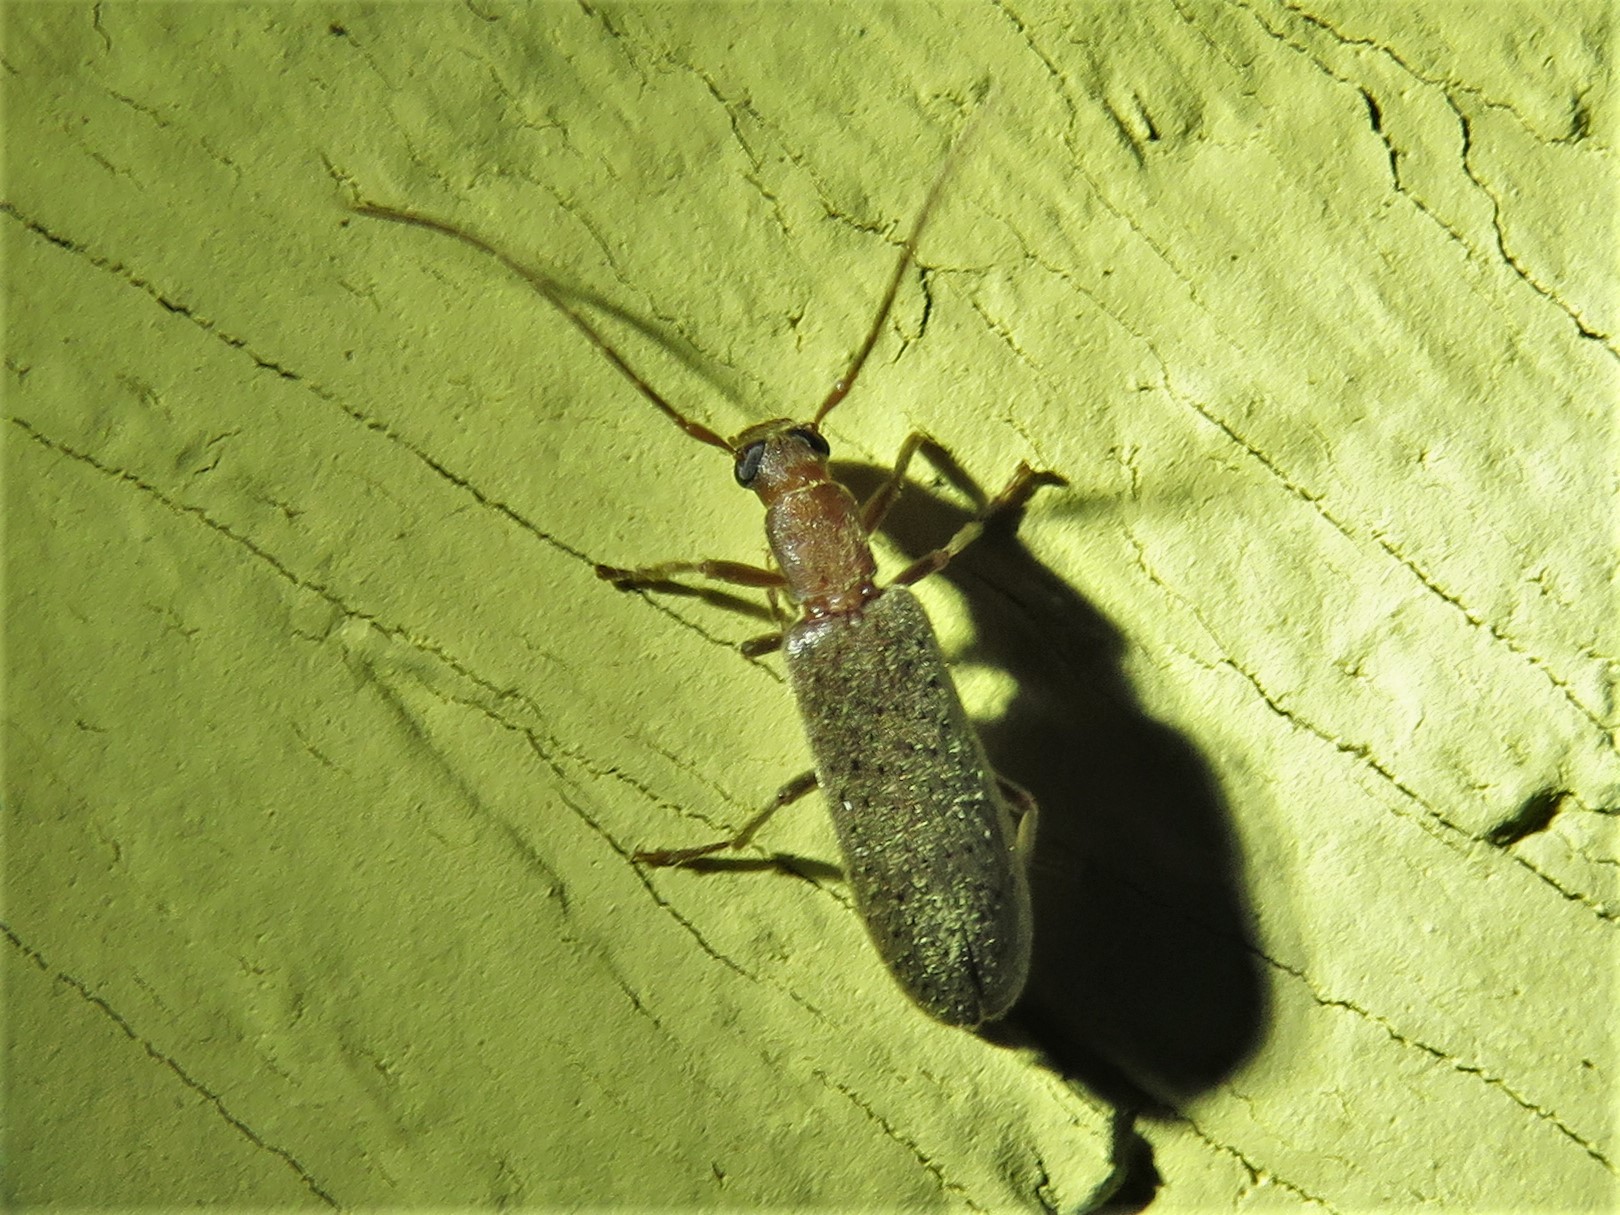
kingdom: Animalia
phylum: Arthropoda
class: Insecta
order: Coleoptera
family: Oedemeridae
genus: Sparedrus
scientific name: Sparedrus aspersus
